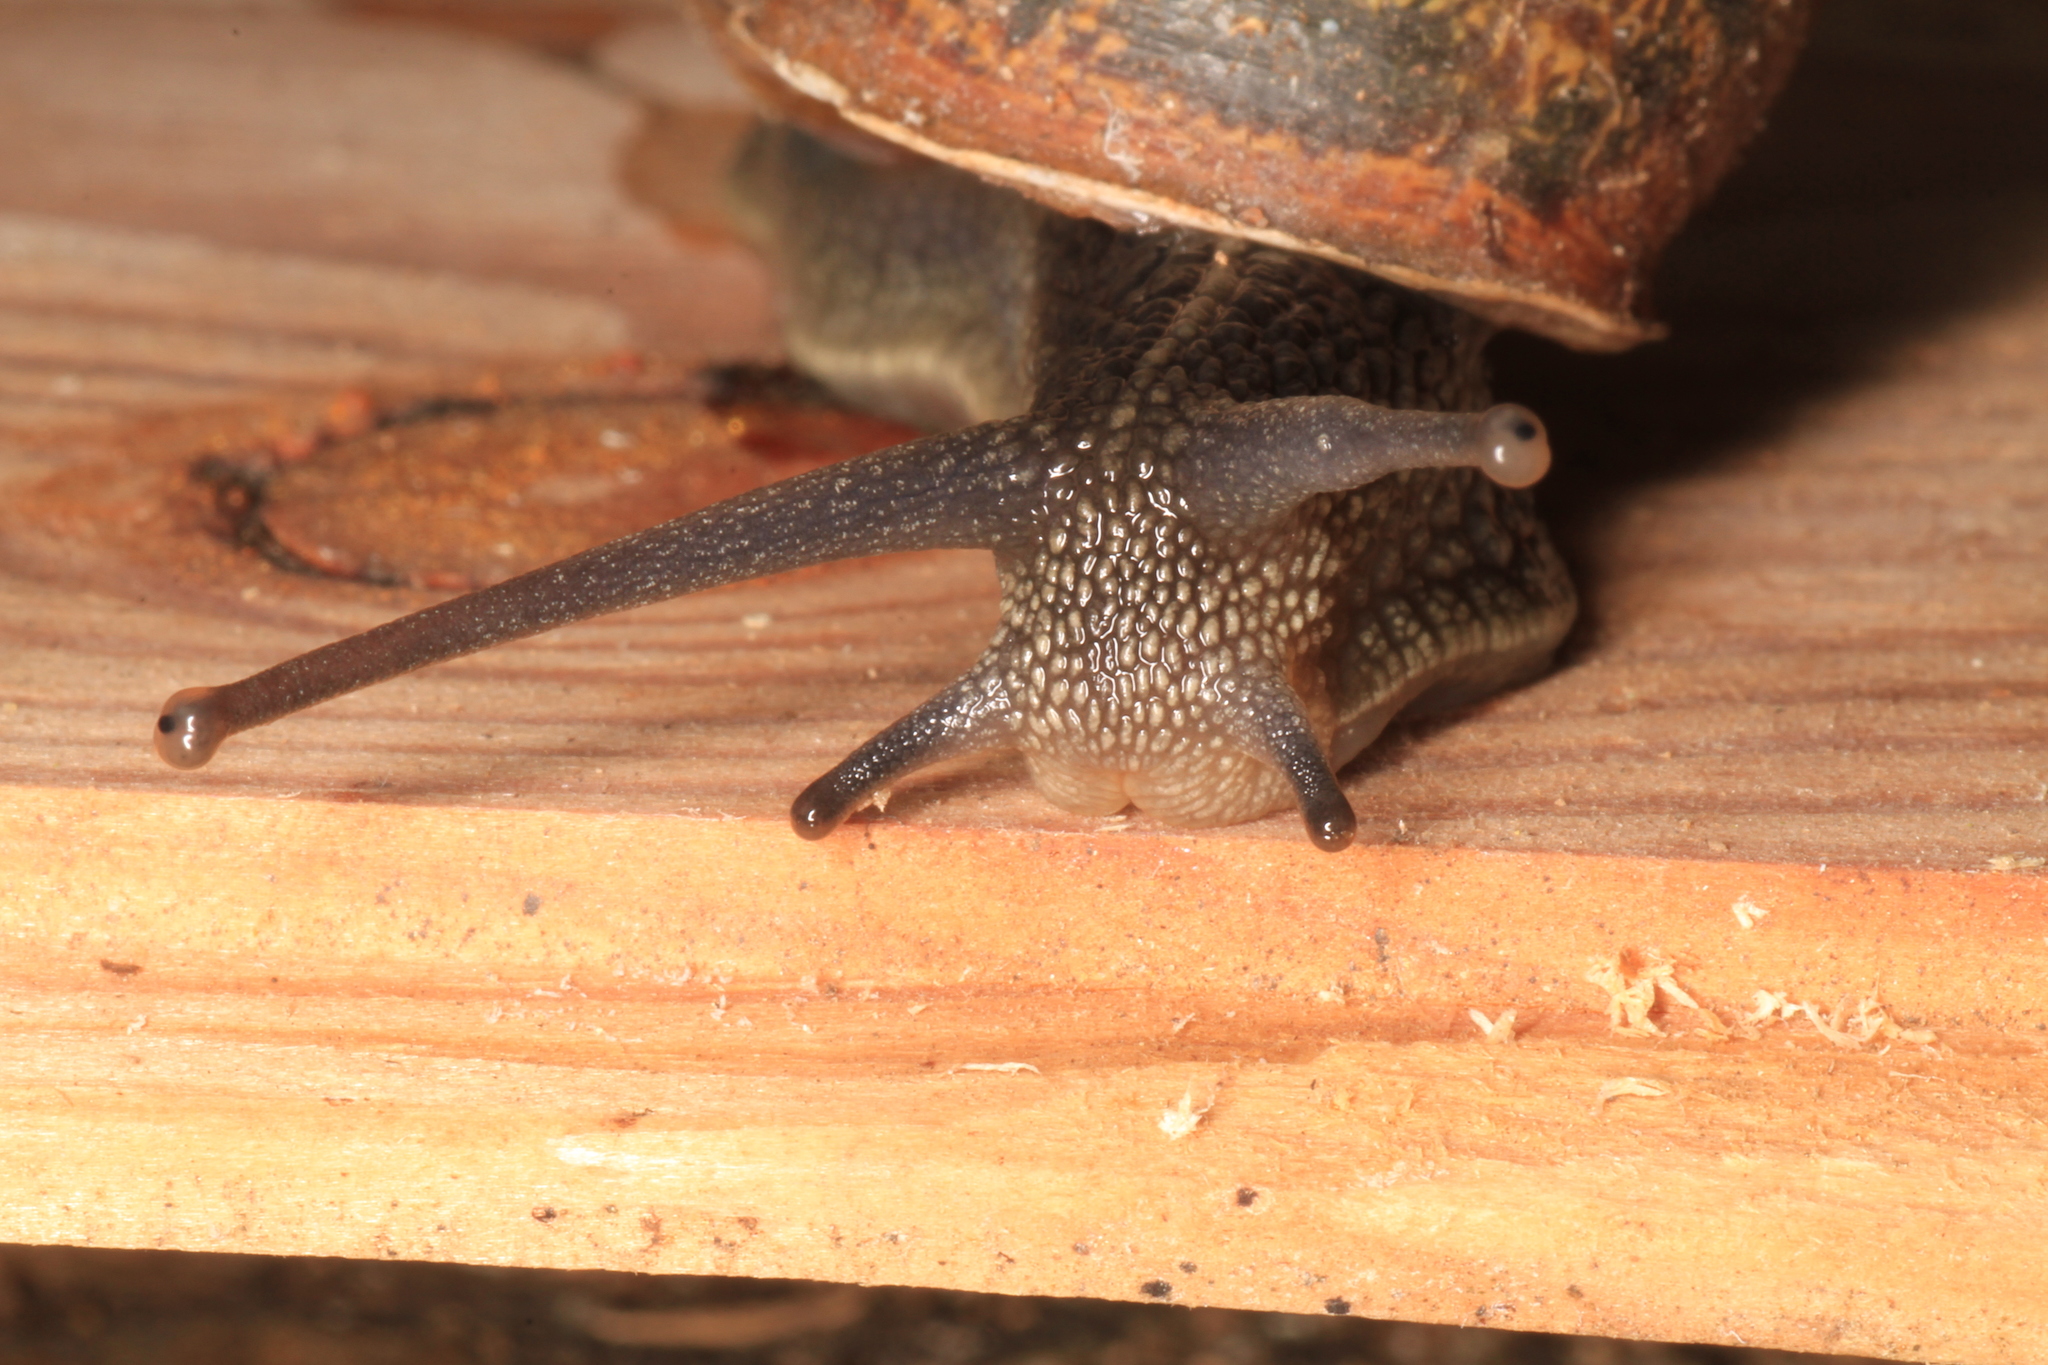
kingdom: Animalia
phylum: Mollusca
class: Gastropoda
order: Stylommatophora
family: Helicidae
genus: Cornu
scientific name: Cornu aspersum
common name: Brown garden snail
